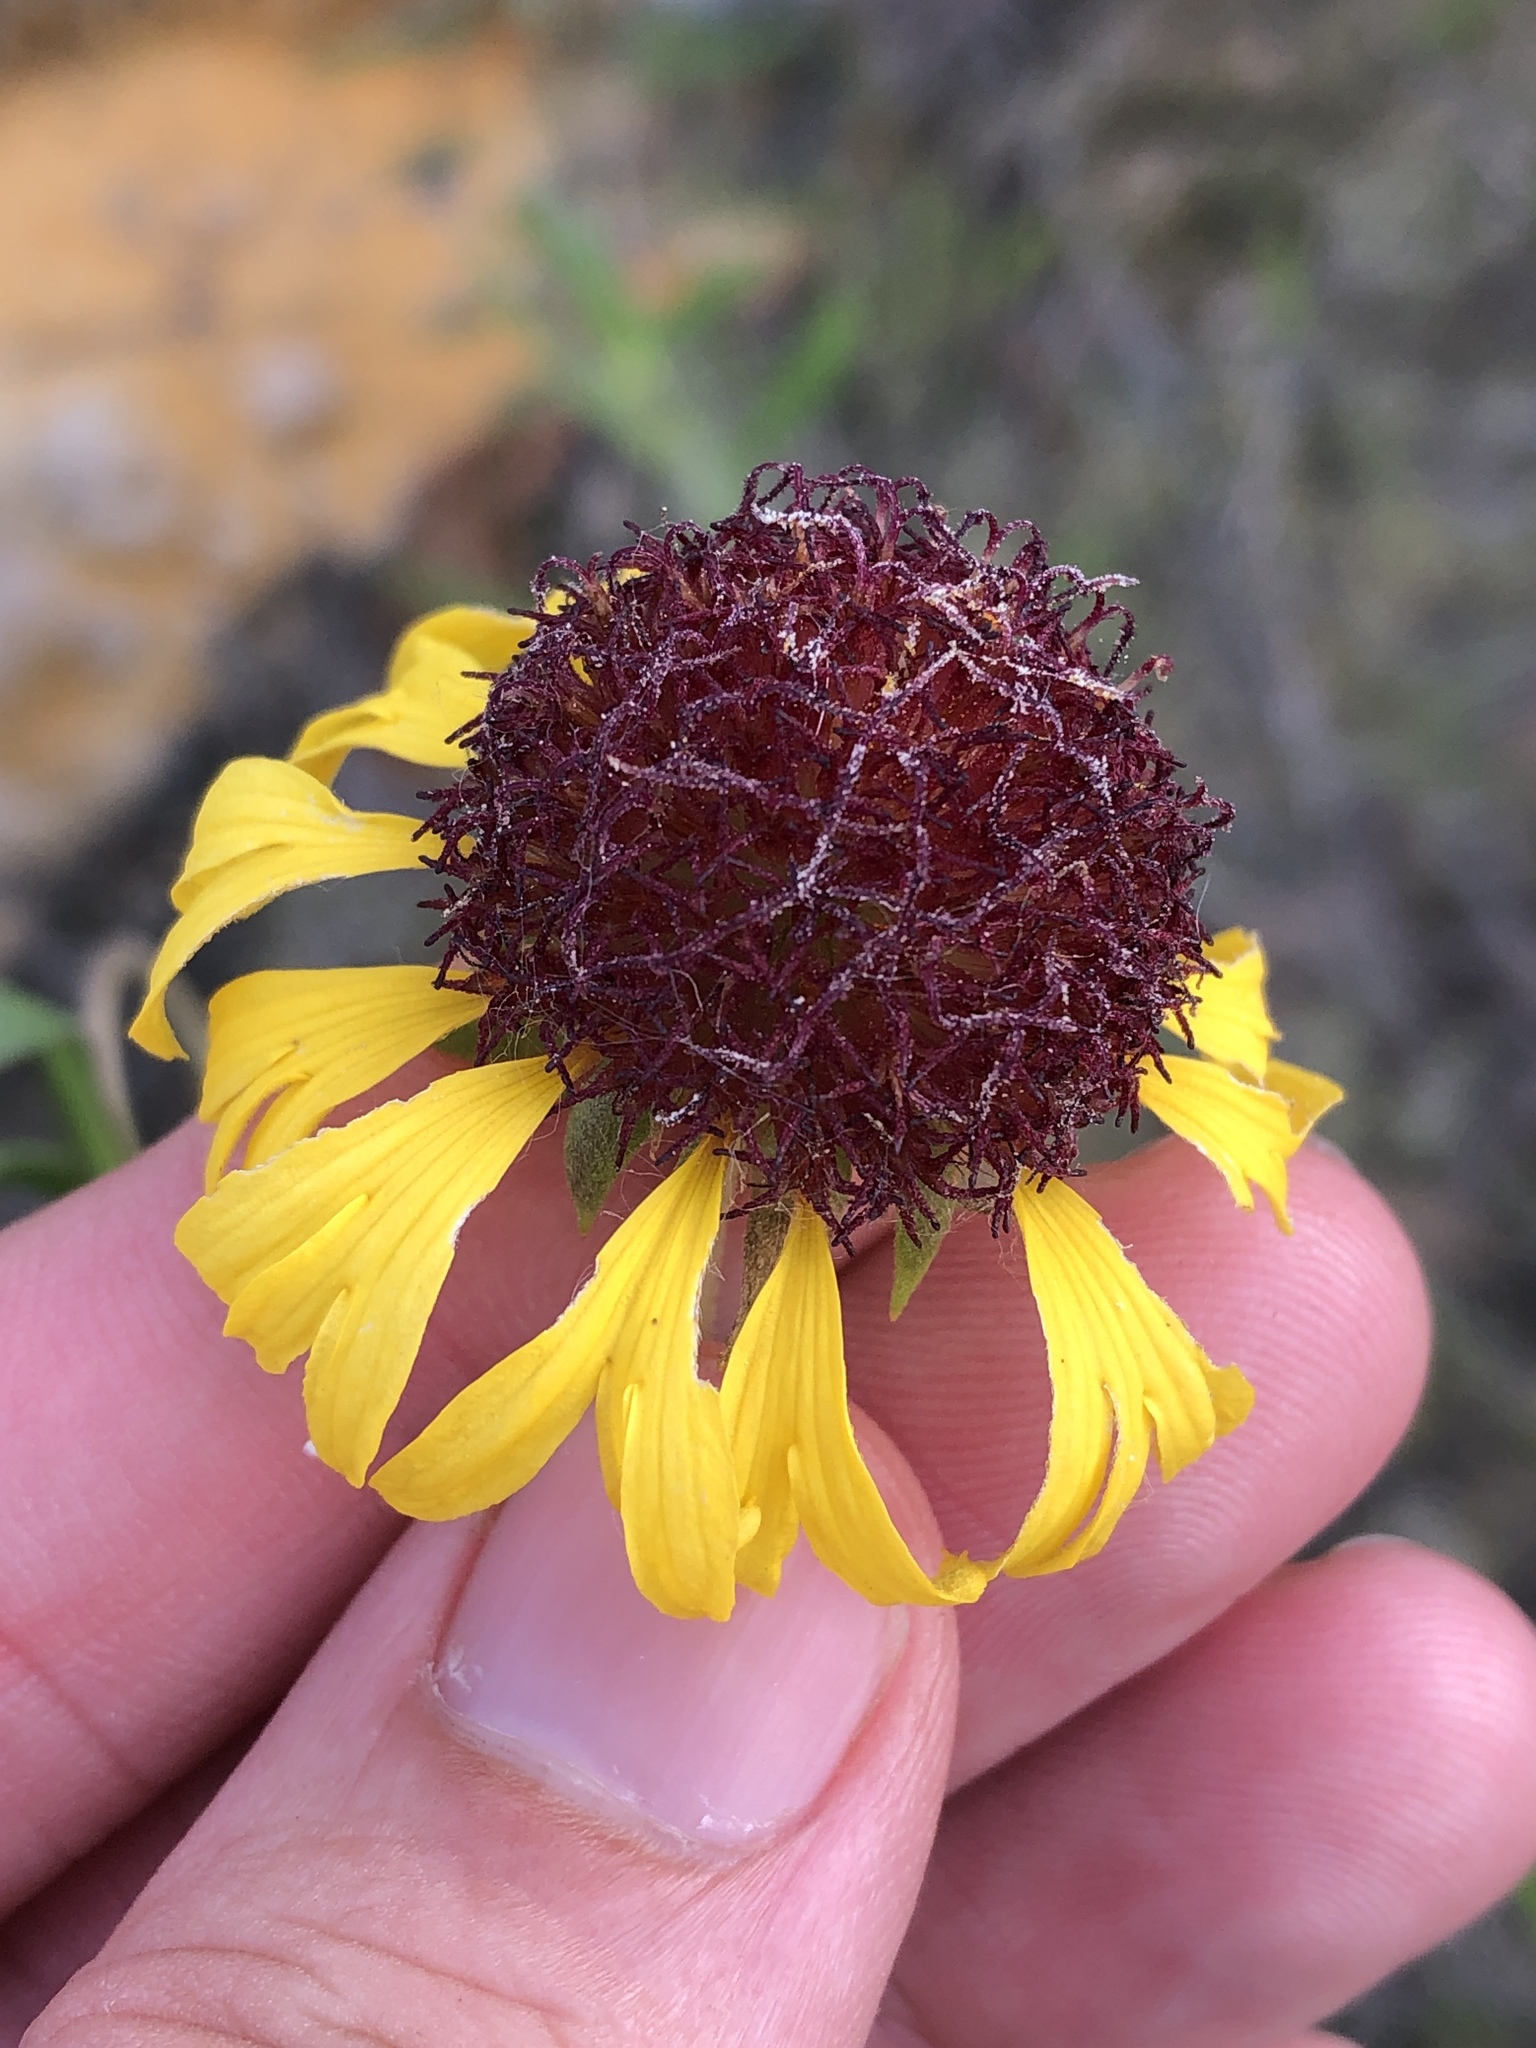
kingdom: Plantae
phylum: Tracheophyta
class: Magnoliopsida
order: Asterales
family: Asteraceae
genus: Gaillardia
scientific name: Gaillardia aestivalis
